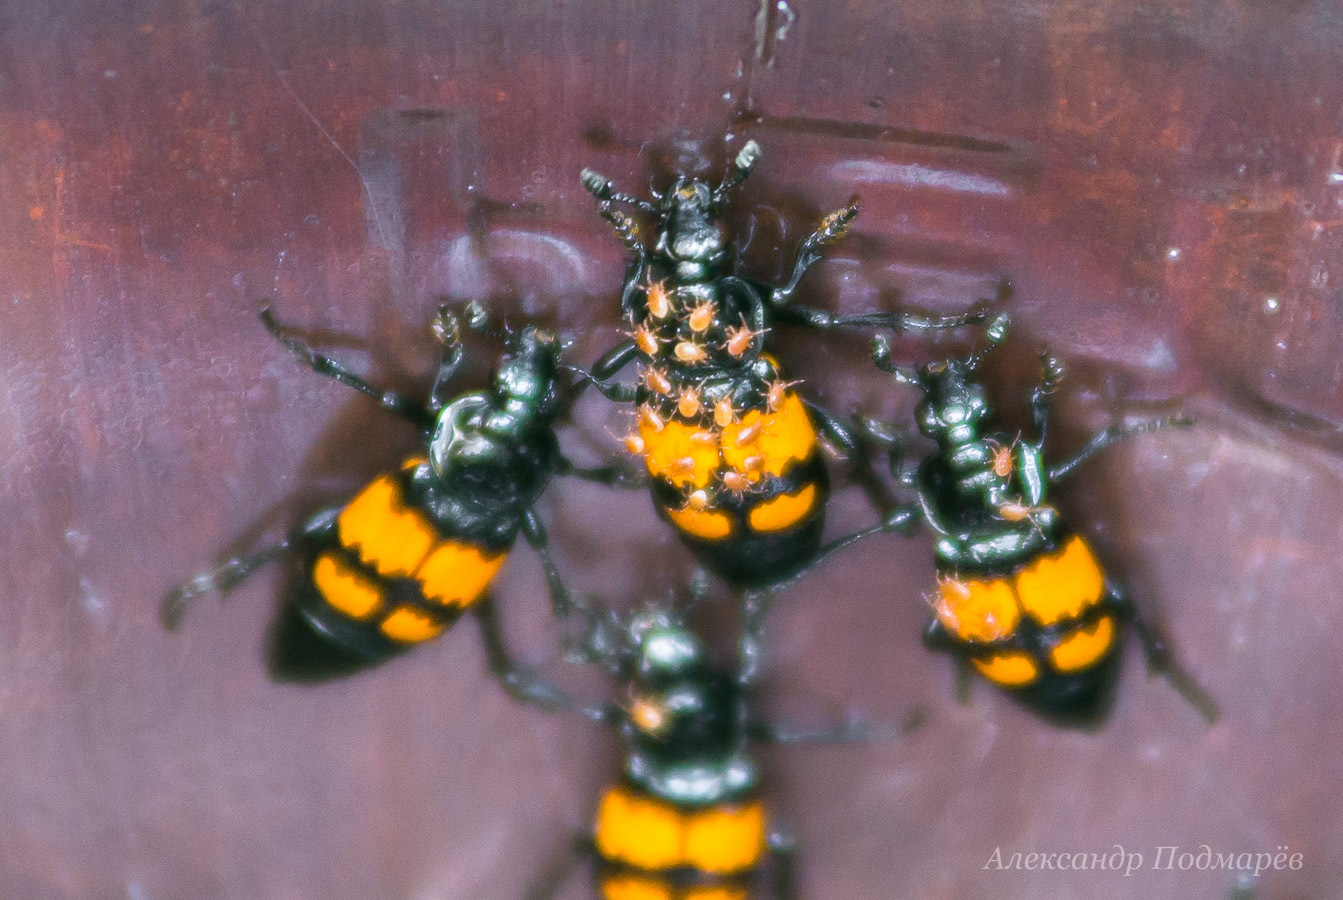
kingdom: Animalia
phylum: Arthropoda
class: Insecta
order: Coleoptera
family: Staphylinidae
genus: Nicrophorus
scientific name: Nicrophorus vespilloides
